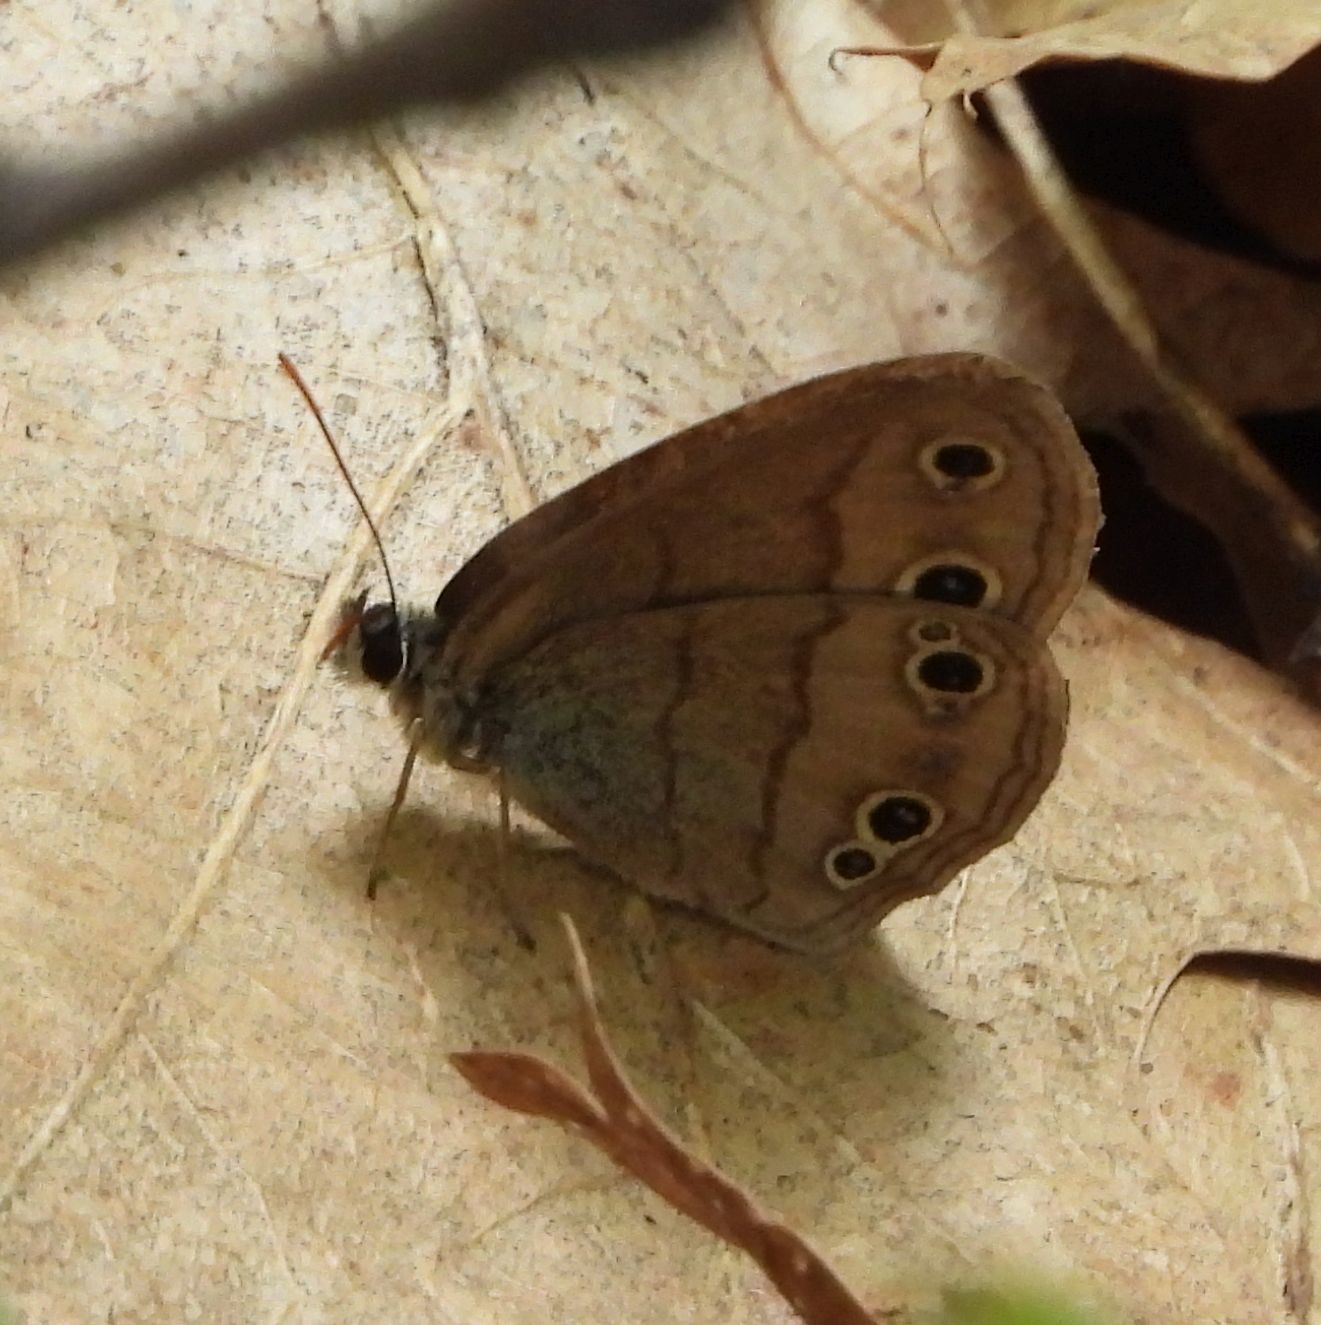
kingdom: Animalia
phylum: Arthropoda
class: Insecta
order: Lepidoptera
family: Nymphalidae
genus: Euptychia
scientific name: Euptychia cymela
